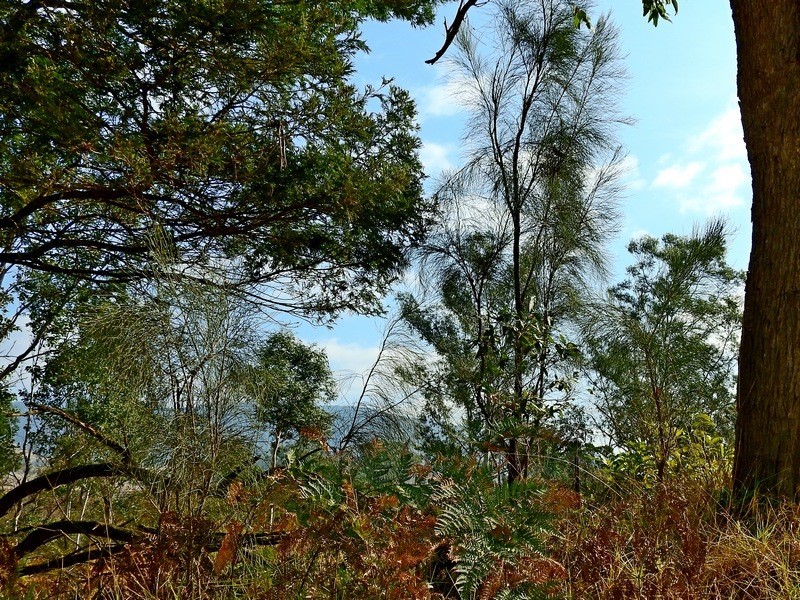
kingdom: Plantae
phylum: Tracheophyta
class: Magnoliopsida
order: Fabales
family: Fabaceae
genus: Jacksonia
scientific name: Jacksonia scoparia
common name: Dogwood
